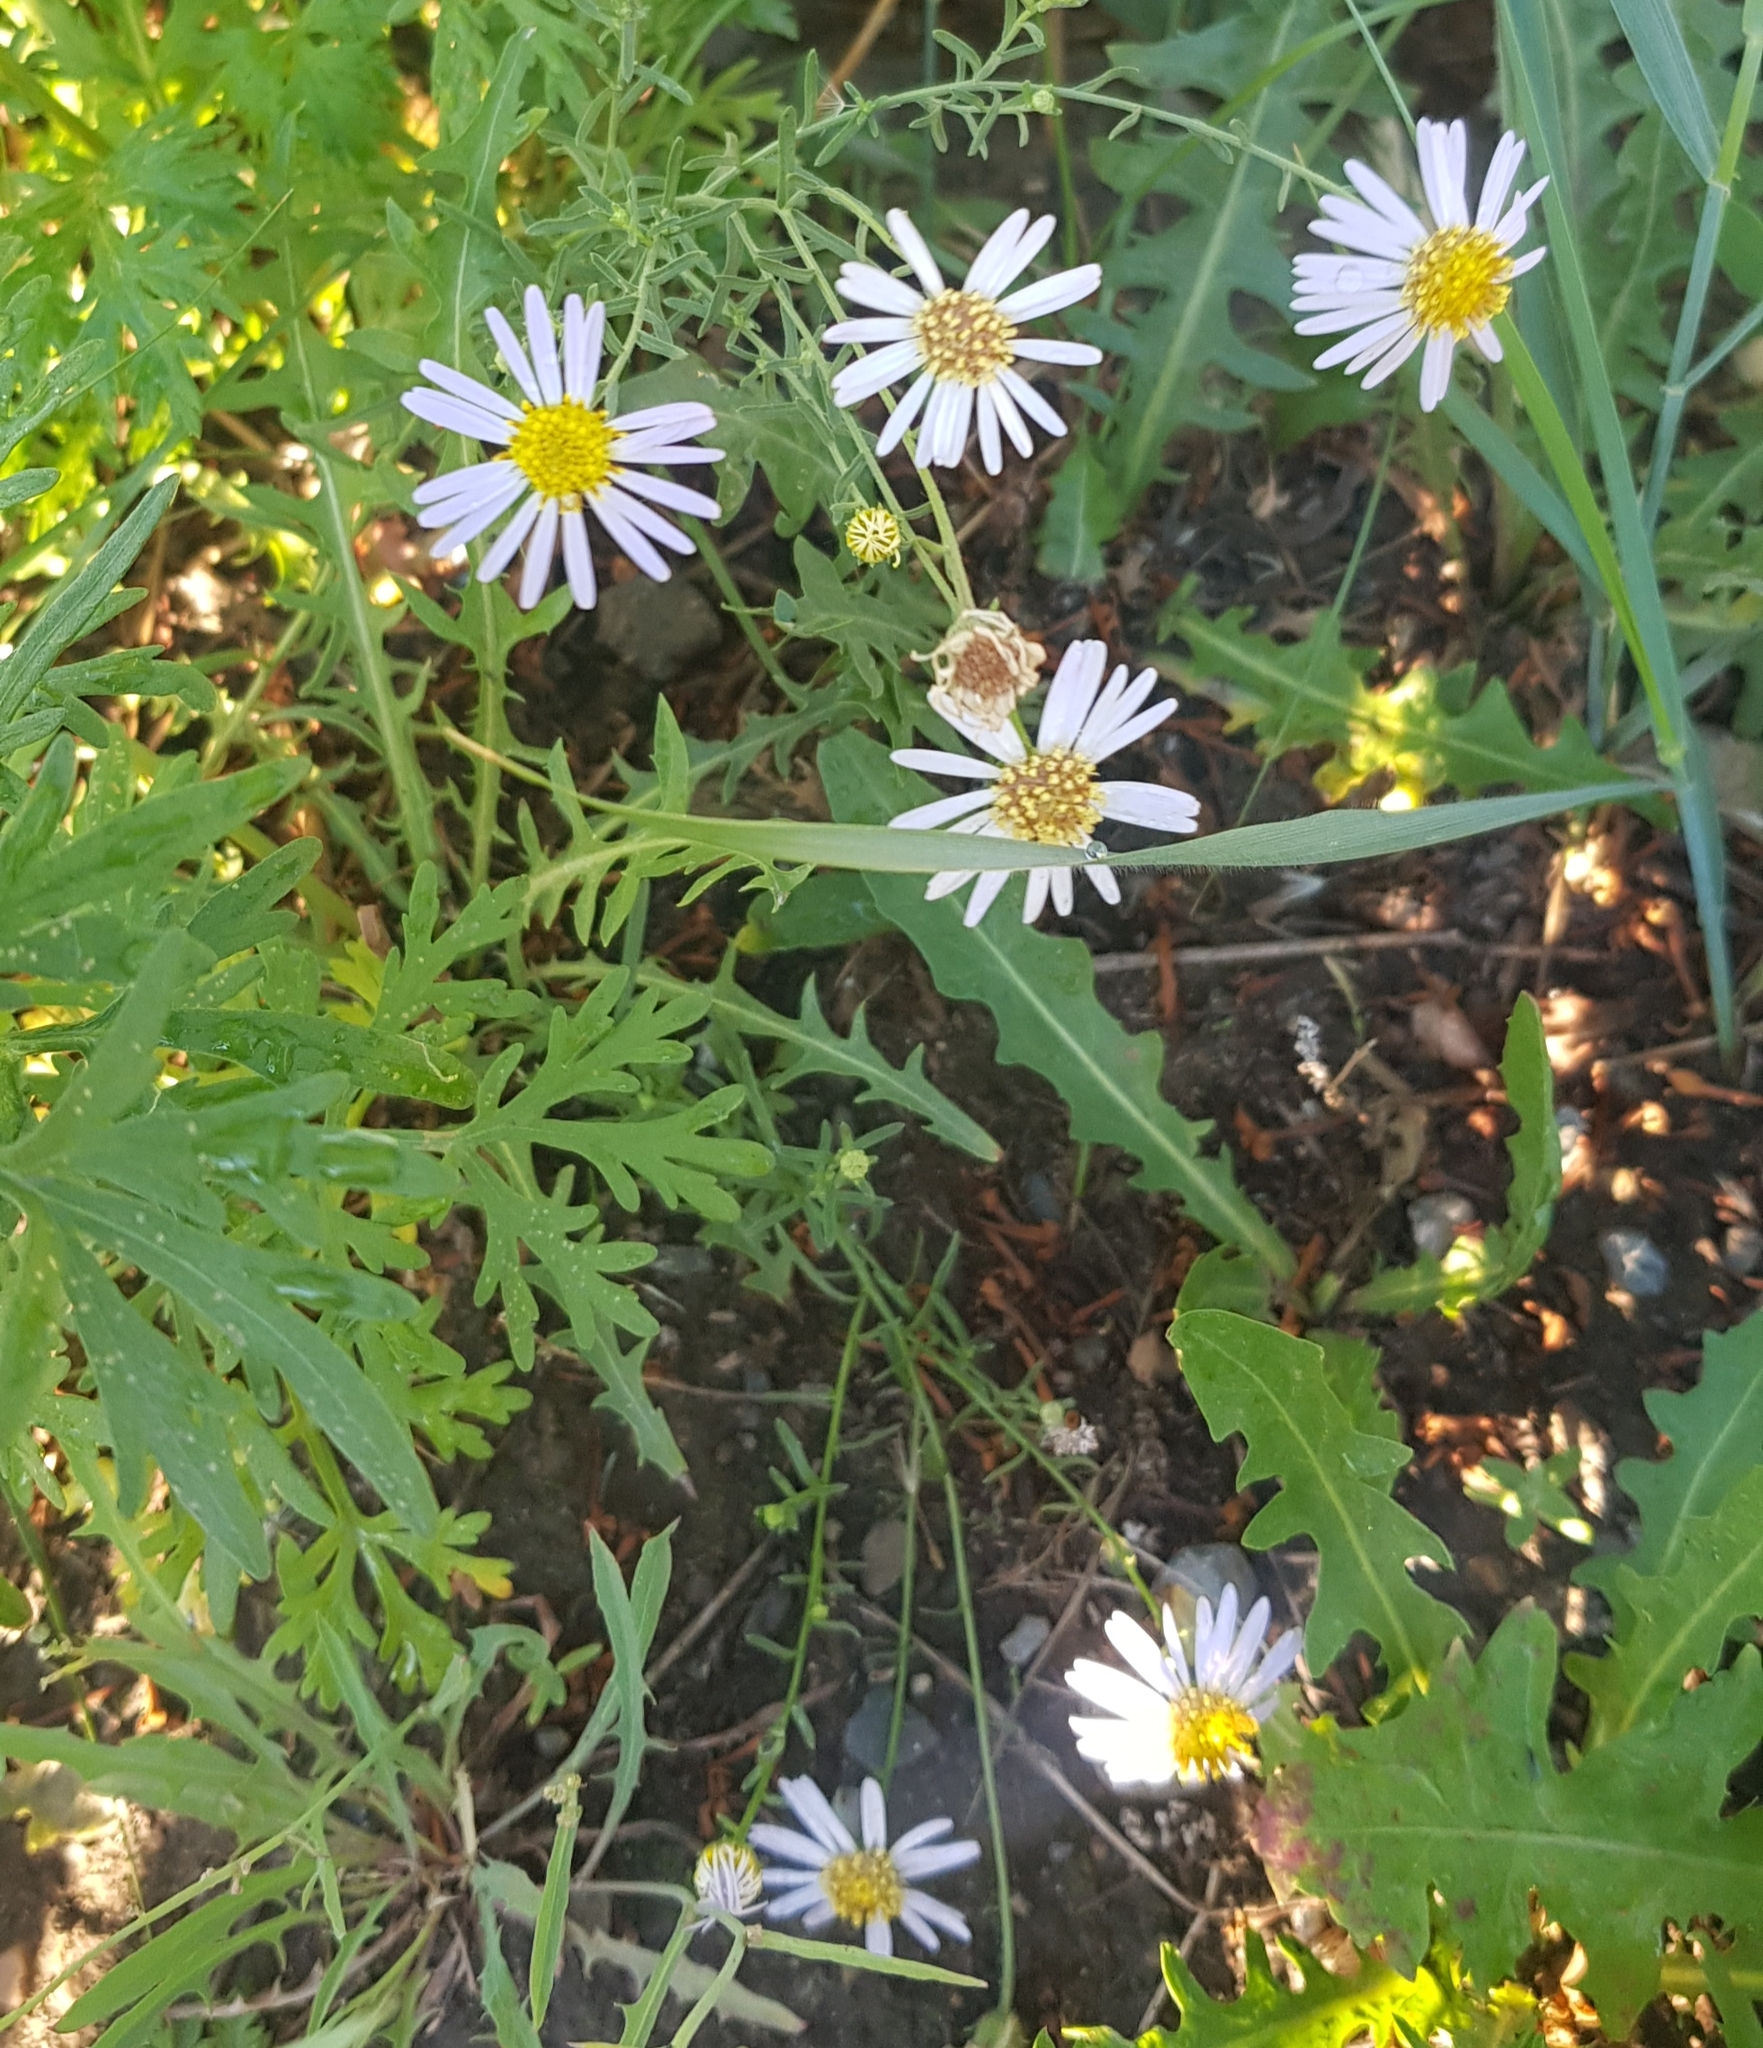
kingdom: Plantae
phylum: Tracheophyta
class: Magnoliopsida
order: Asterales
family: Asteraceae
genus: Heteropappus
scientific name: Heteropappus altaicus
